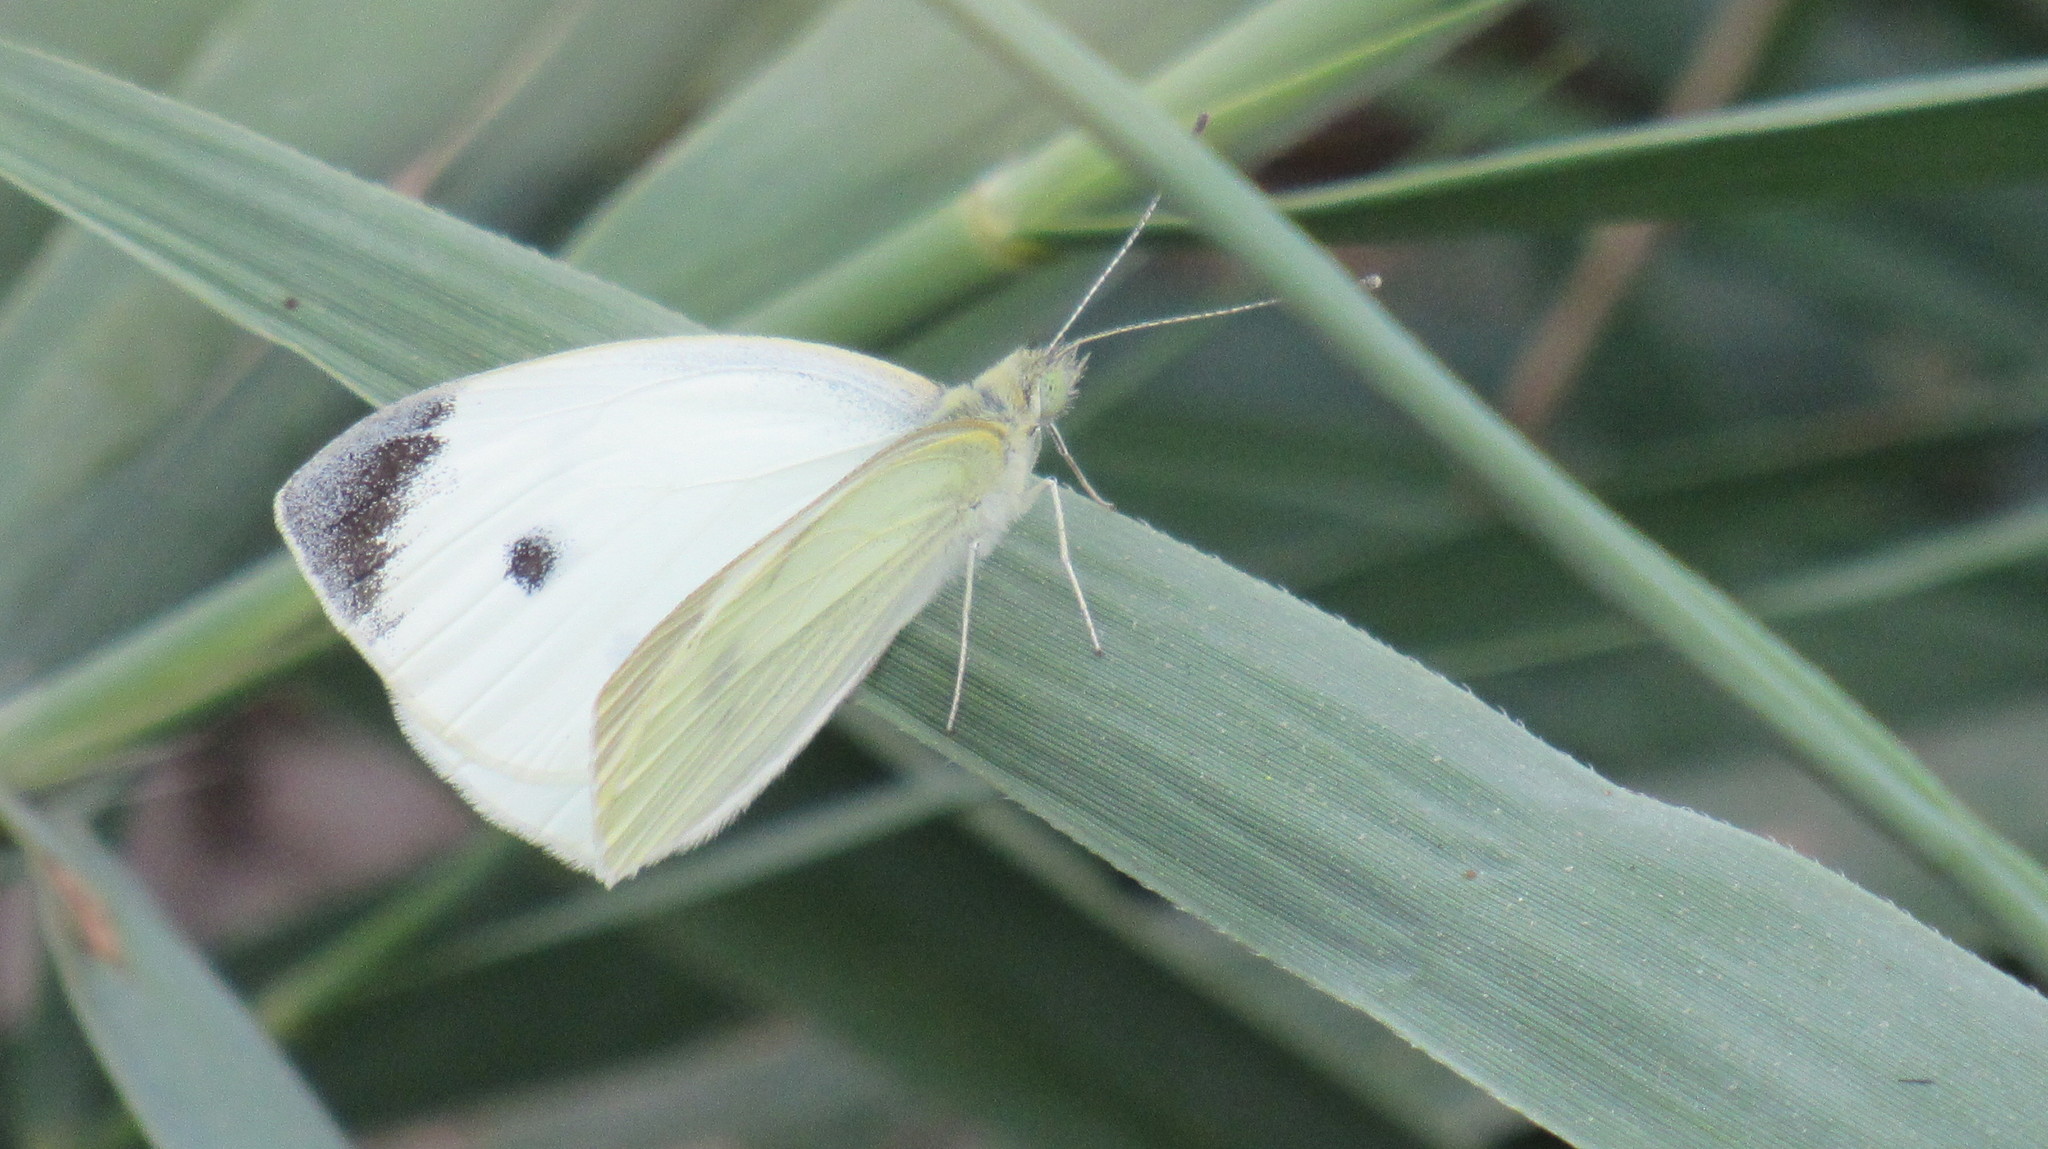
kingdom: Animalia
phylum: Arthropoda
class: Insecta
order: Lepidoptera
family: Pieridae
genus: Pieris
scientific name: Pieris rapae
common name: Small white
